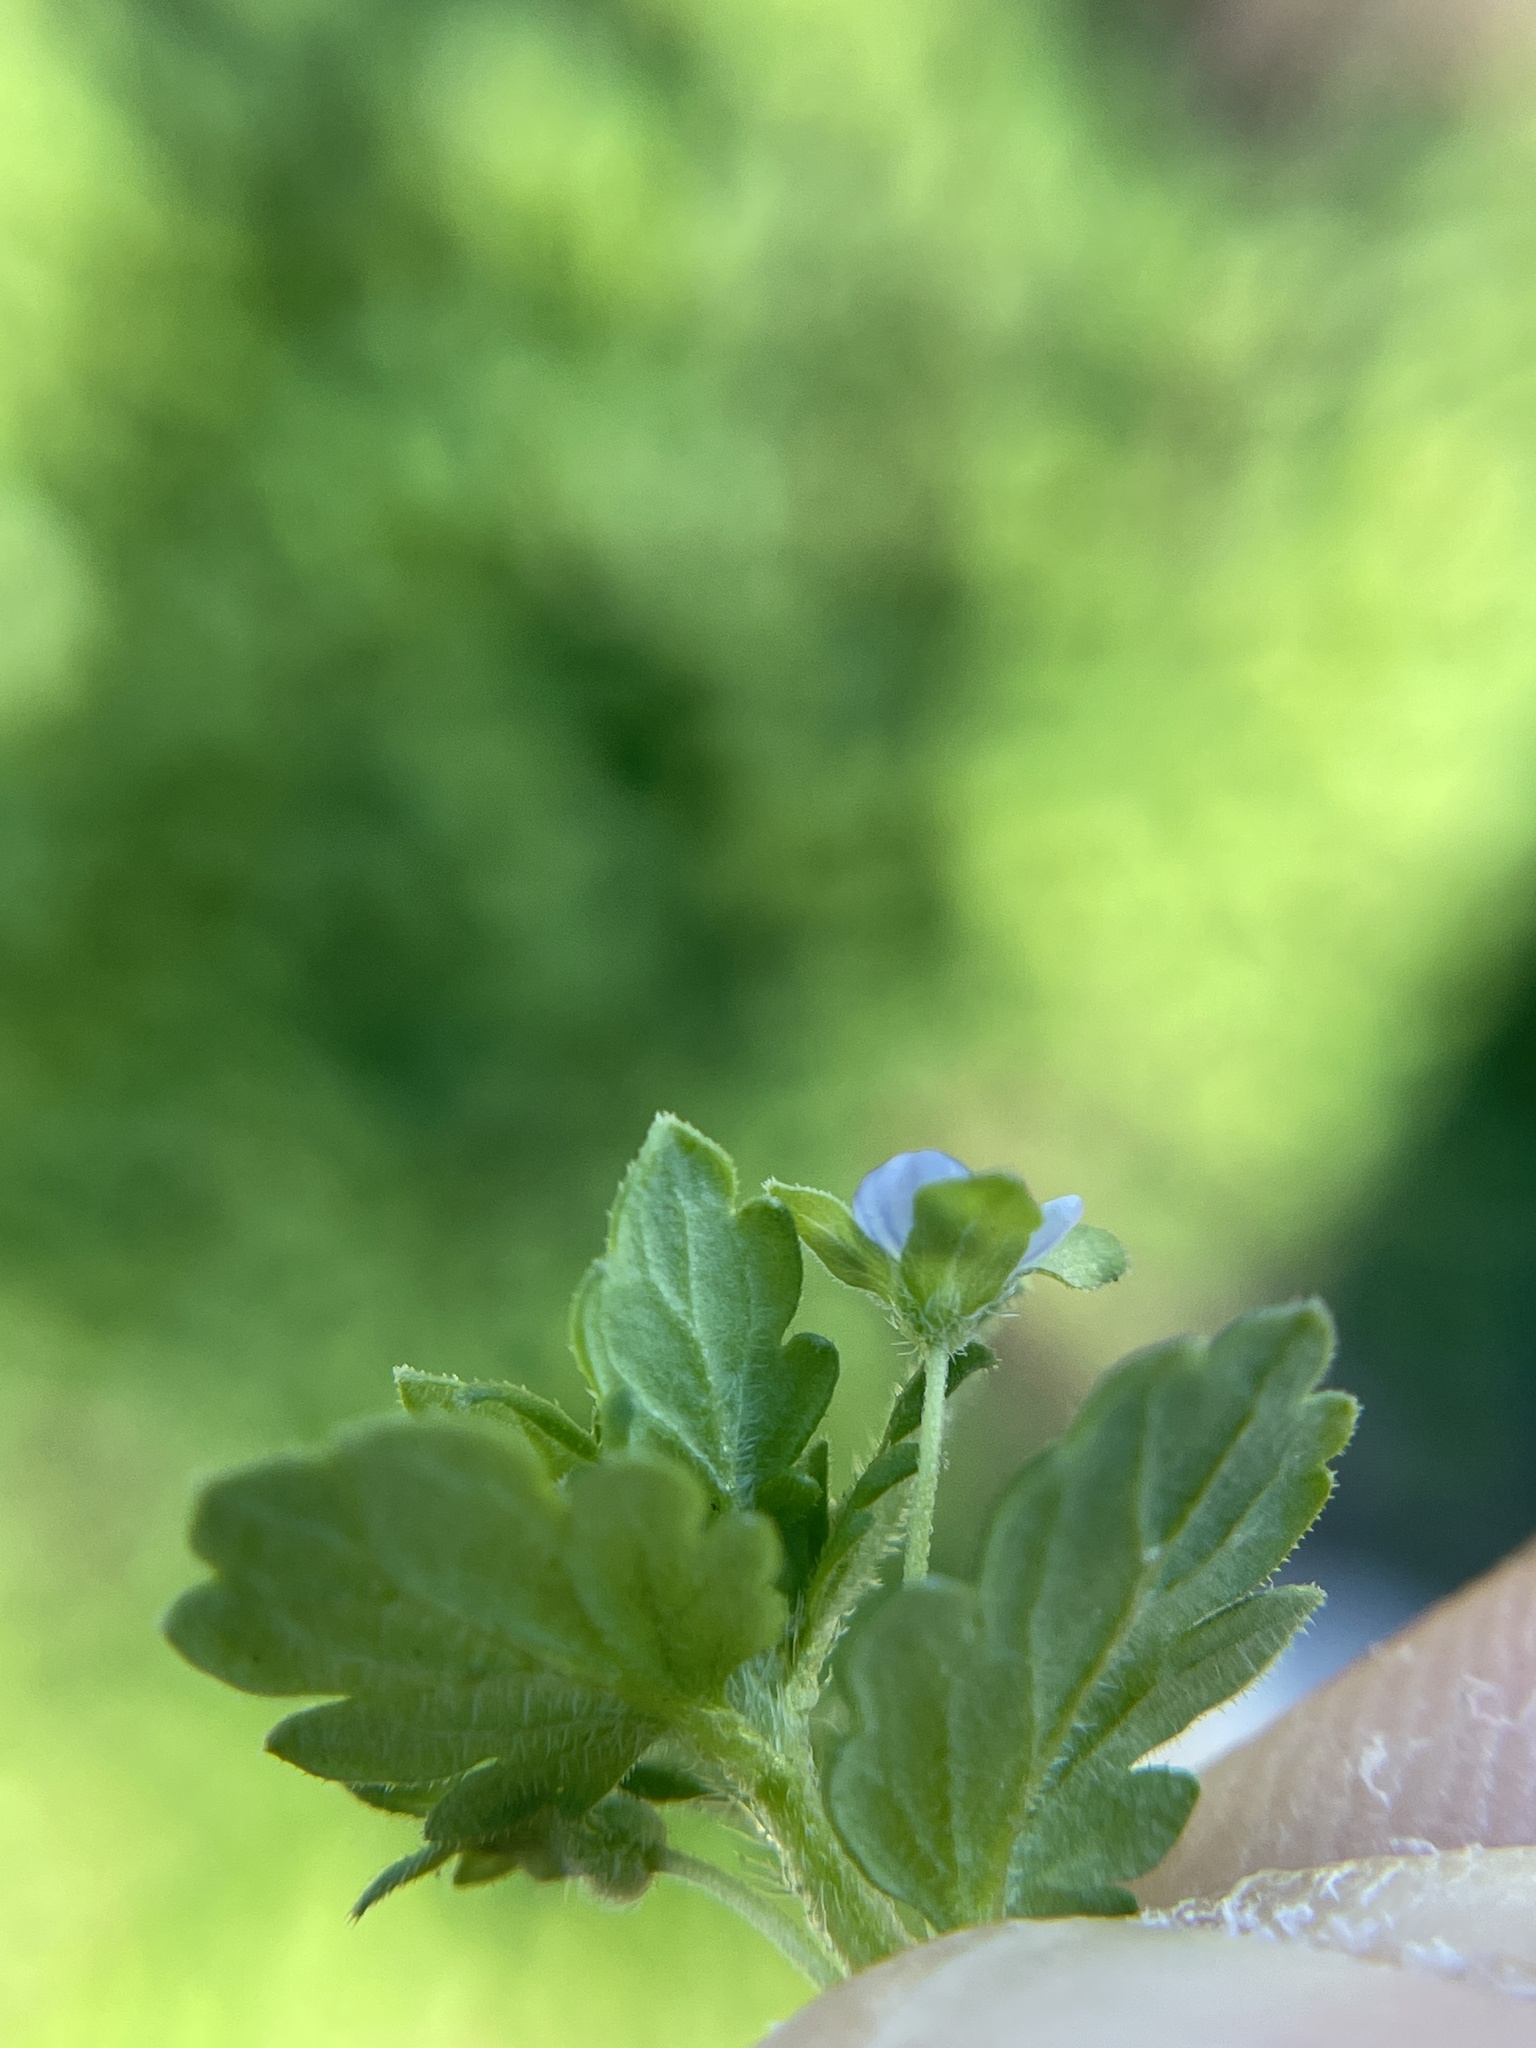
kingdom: Plantae
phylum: Tracheophyta
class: Magnoliopsida
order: Lamiales
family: Plantaginaceae
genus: Veronica
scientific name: Veronica polita
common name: Grey field-speedwell
